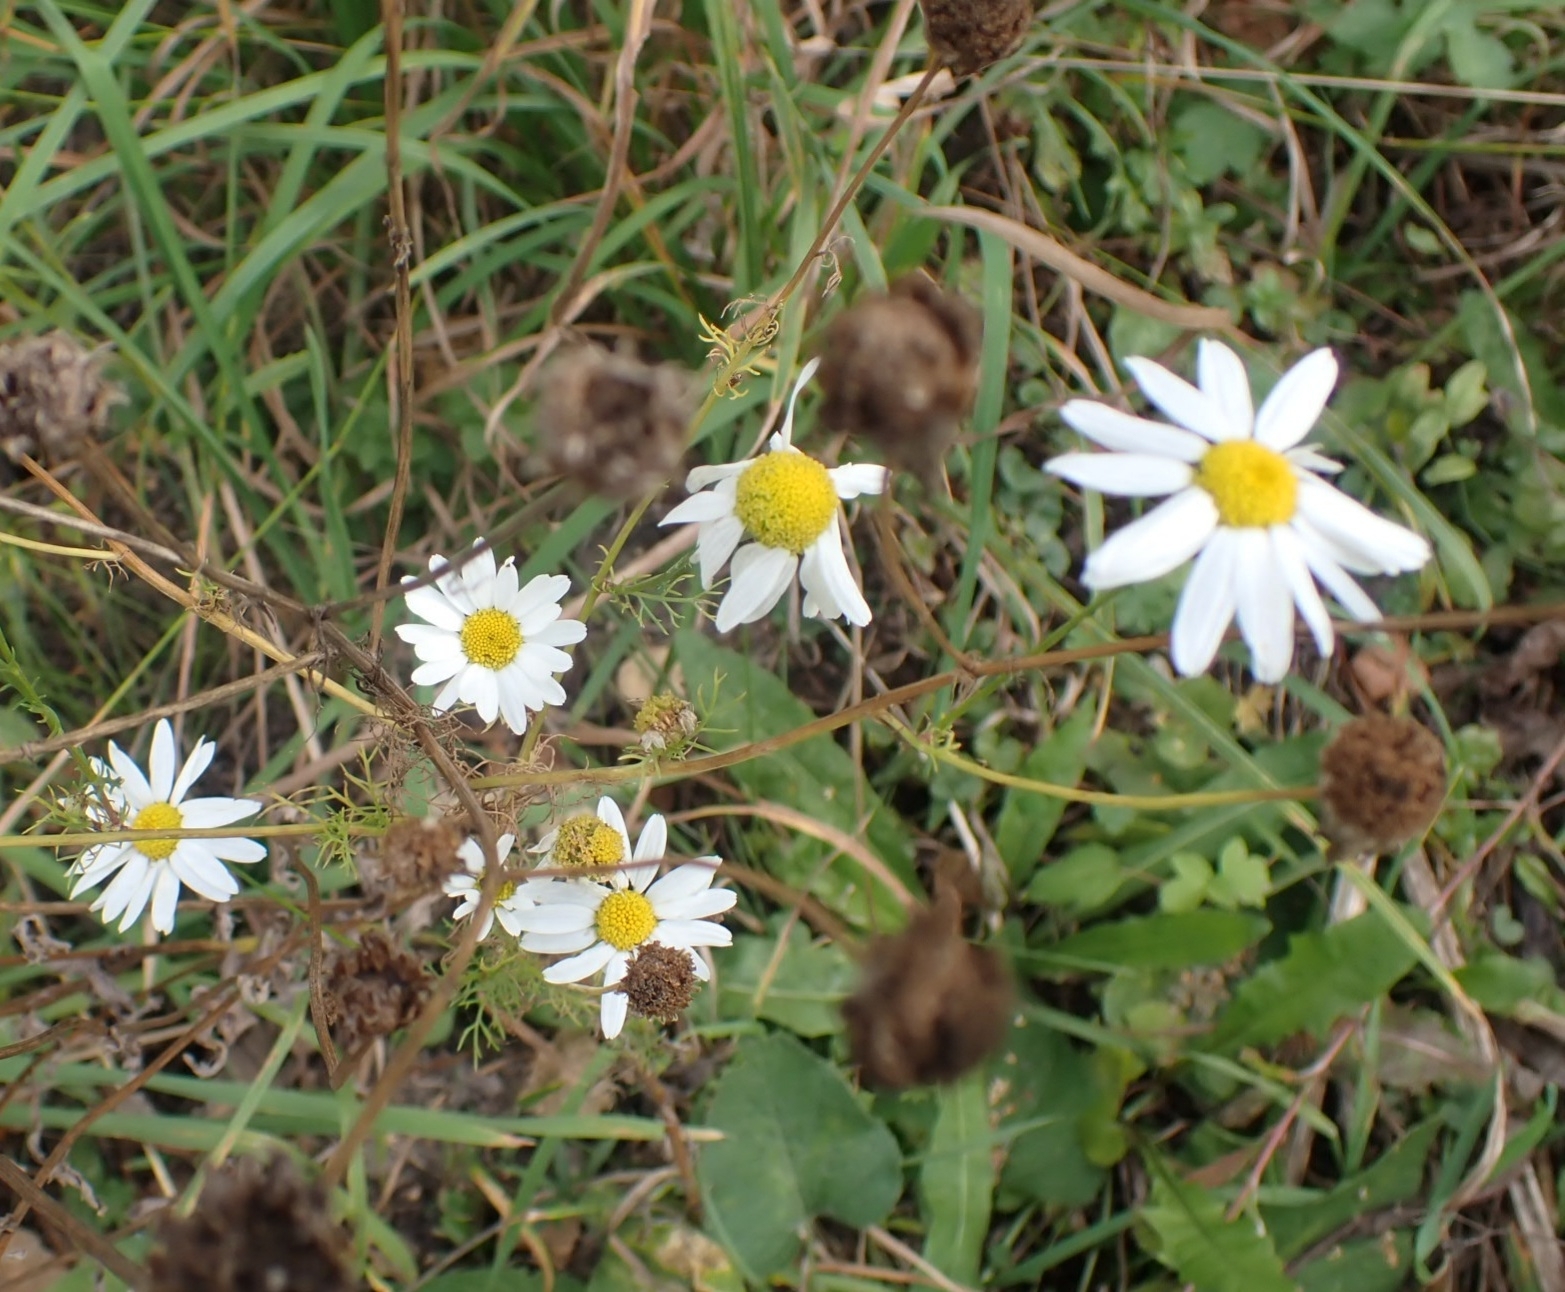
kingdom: Plantae
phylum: Tracheophyta
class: Magnoliopsida
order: Asterales
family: Asteraceae
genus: Tripleurospermum
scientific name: Tripleurospermum inodorum
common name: Scentless mayweed
